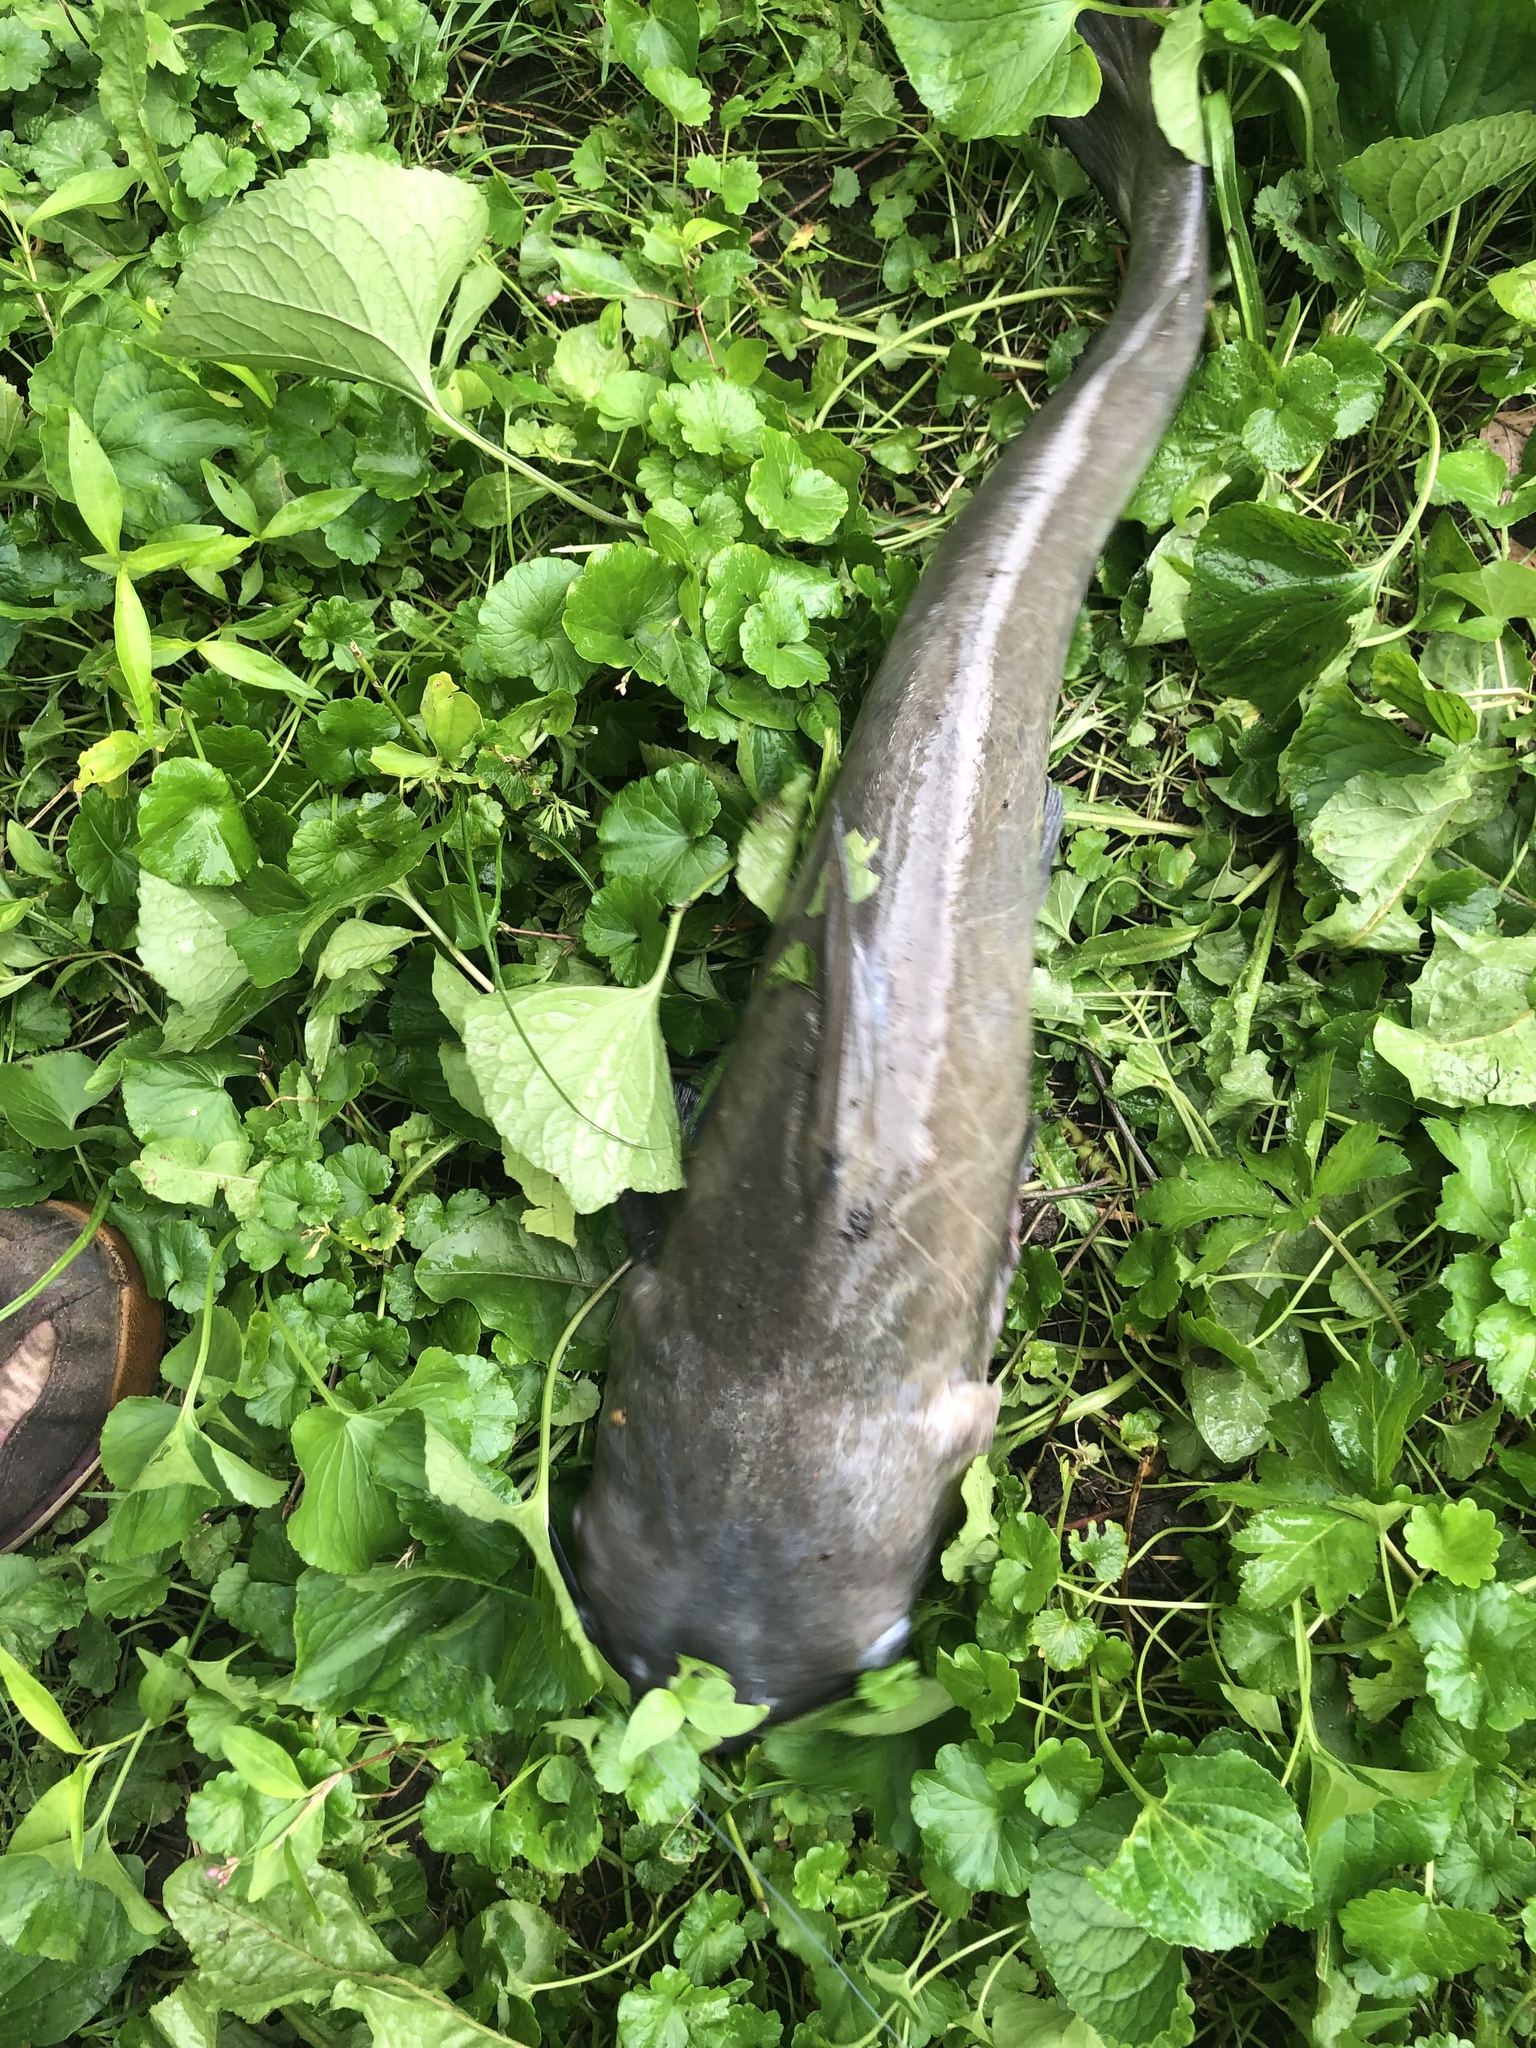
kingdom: Animalia
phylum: Chordata
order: Siluriformes
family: Ictaluridae
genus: Ictalurus
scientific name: Ictalurus punctatus
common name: Channel catfish
